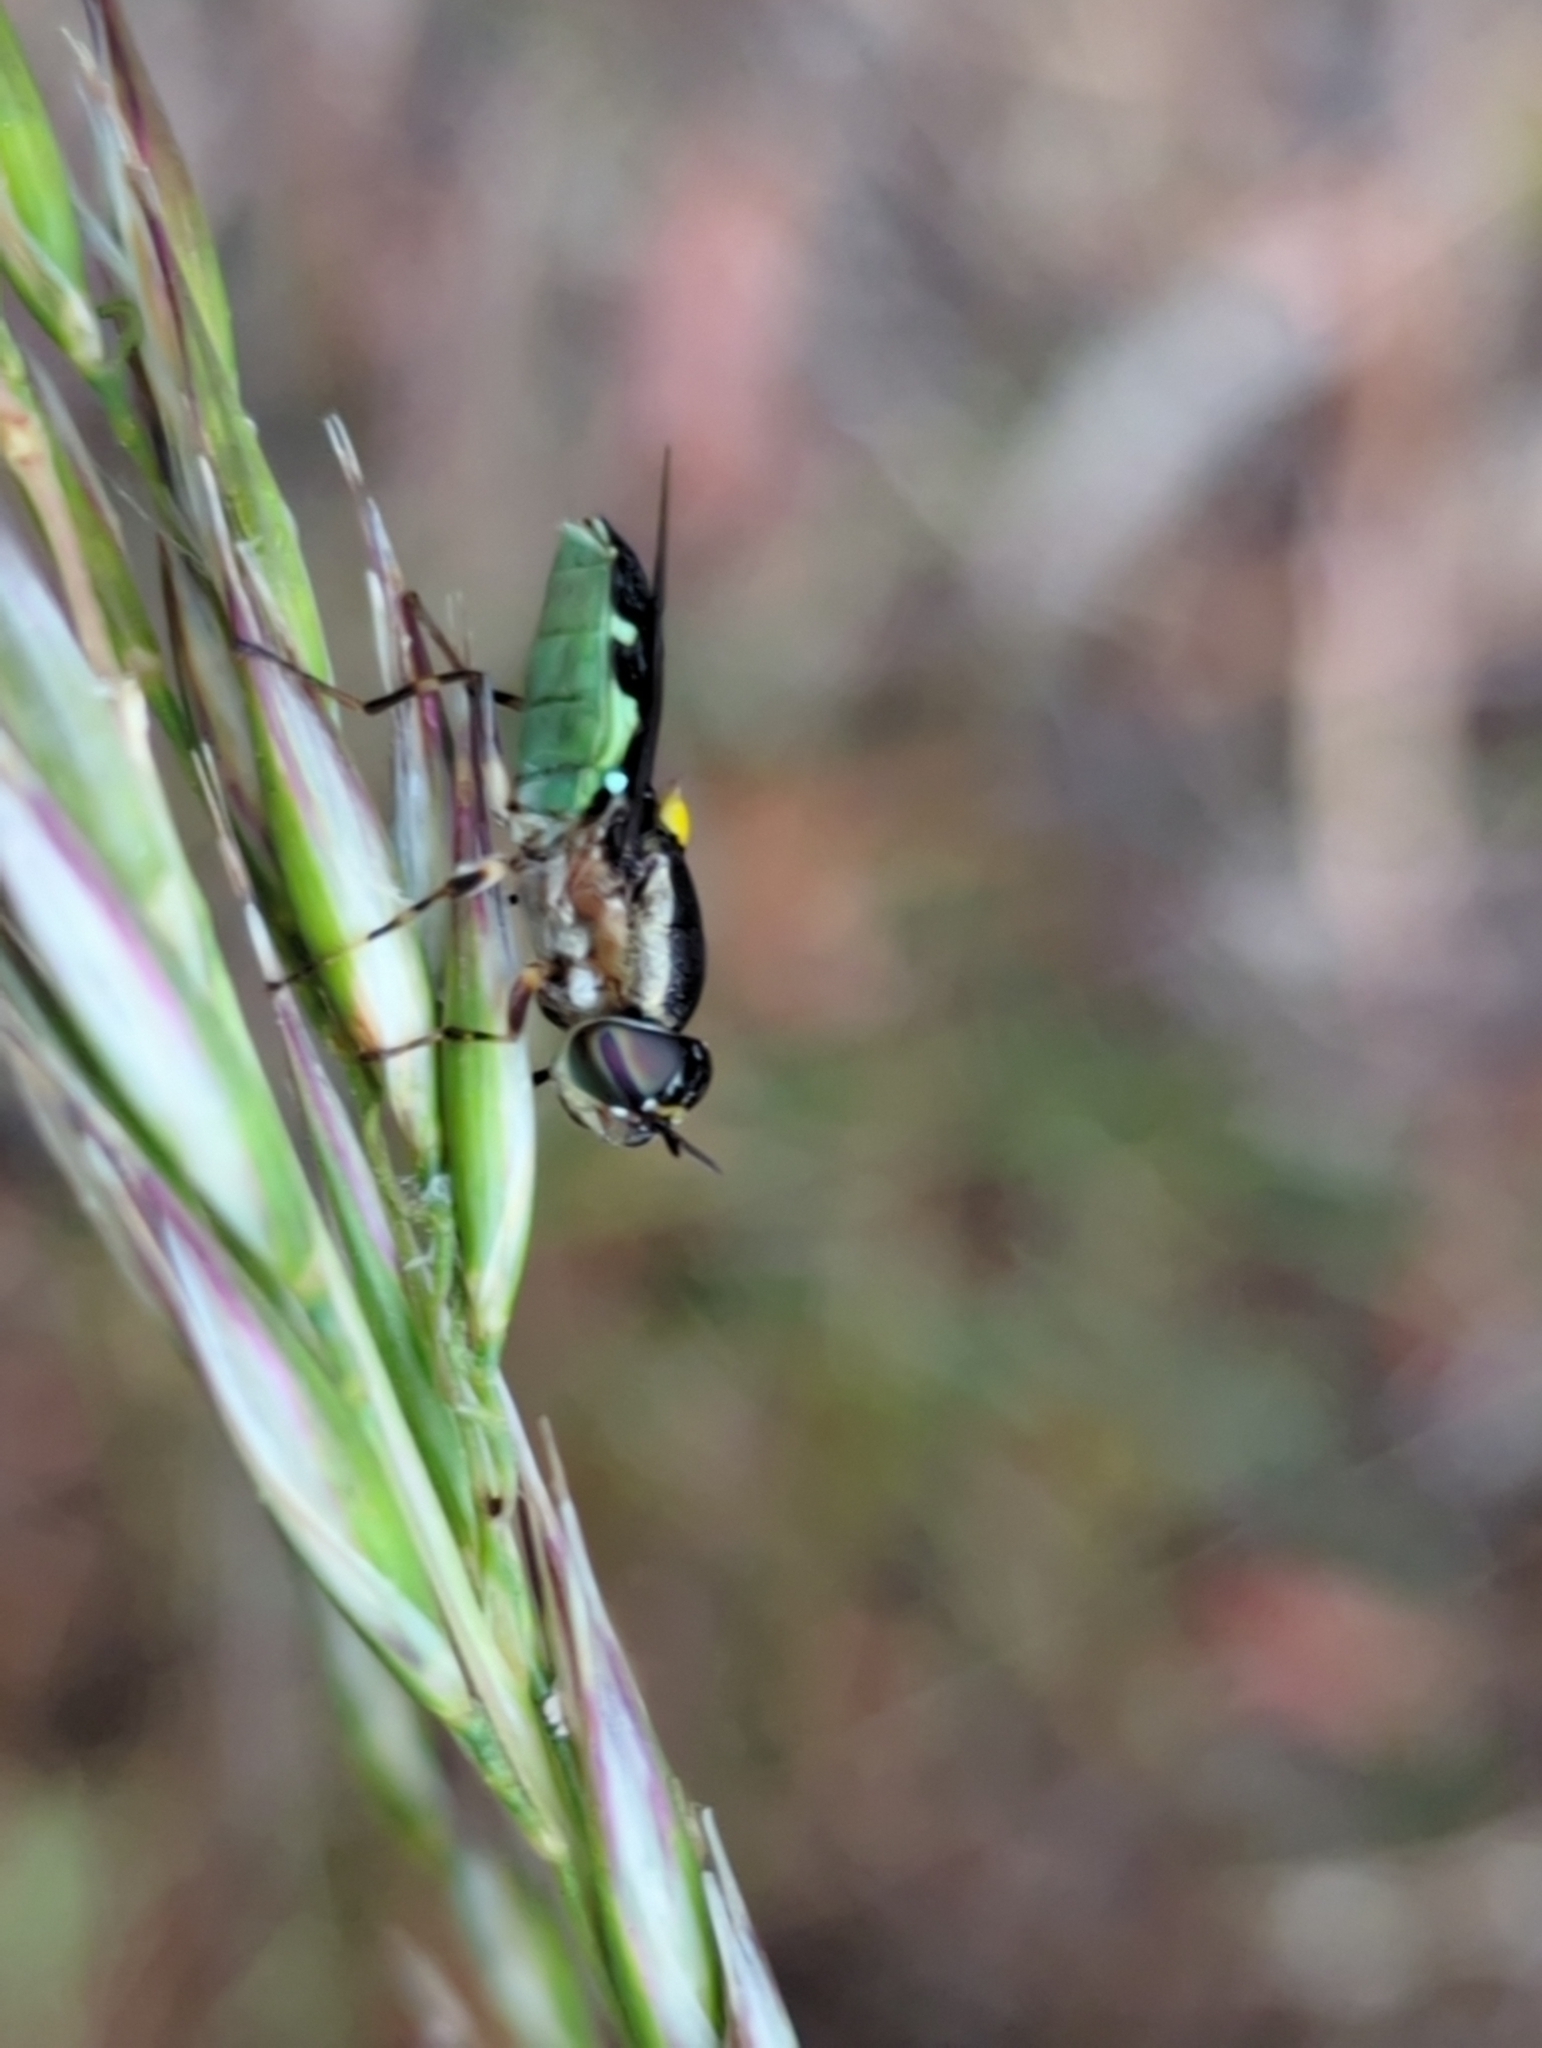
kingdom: Animalia
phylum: Arthropoda
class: Insecta
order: Diptera
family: Stratiomyidae
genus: Odontomyia
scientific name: Odontomyia hunteri
